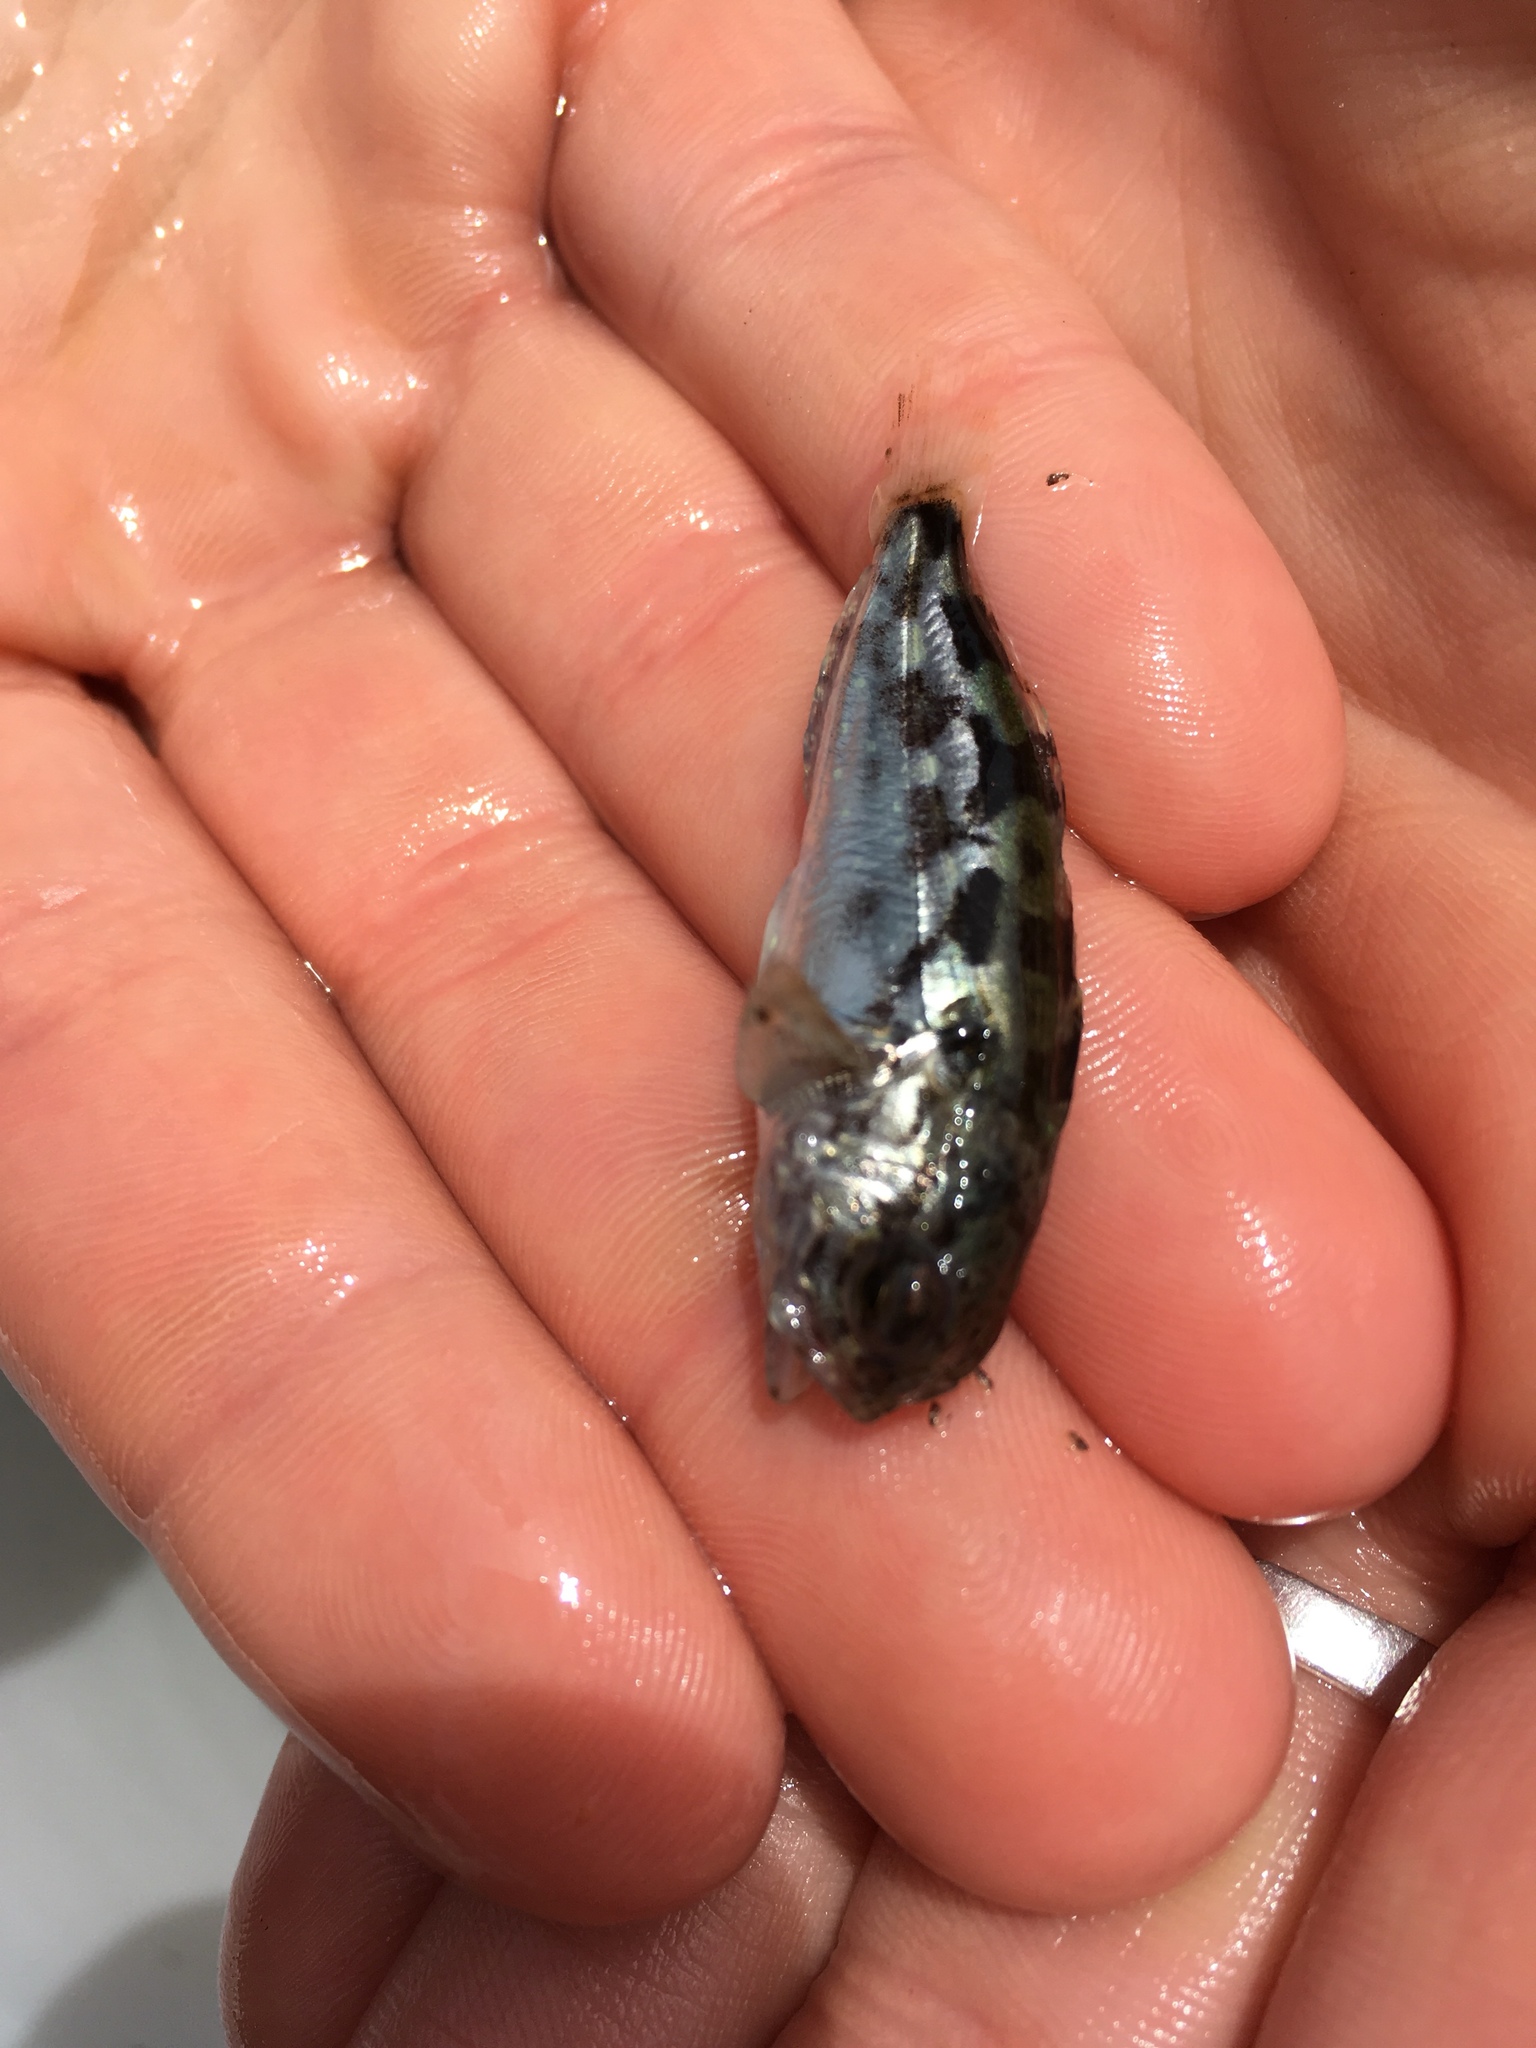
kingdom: Animalia
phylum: Chordata
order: Scorpaeniformes
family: Cottidae
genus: Scorpaenichthys
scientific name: Scorpaenichthys marmoratus
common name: Cabezon
